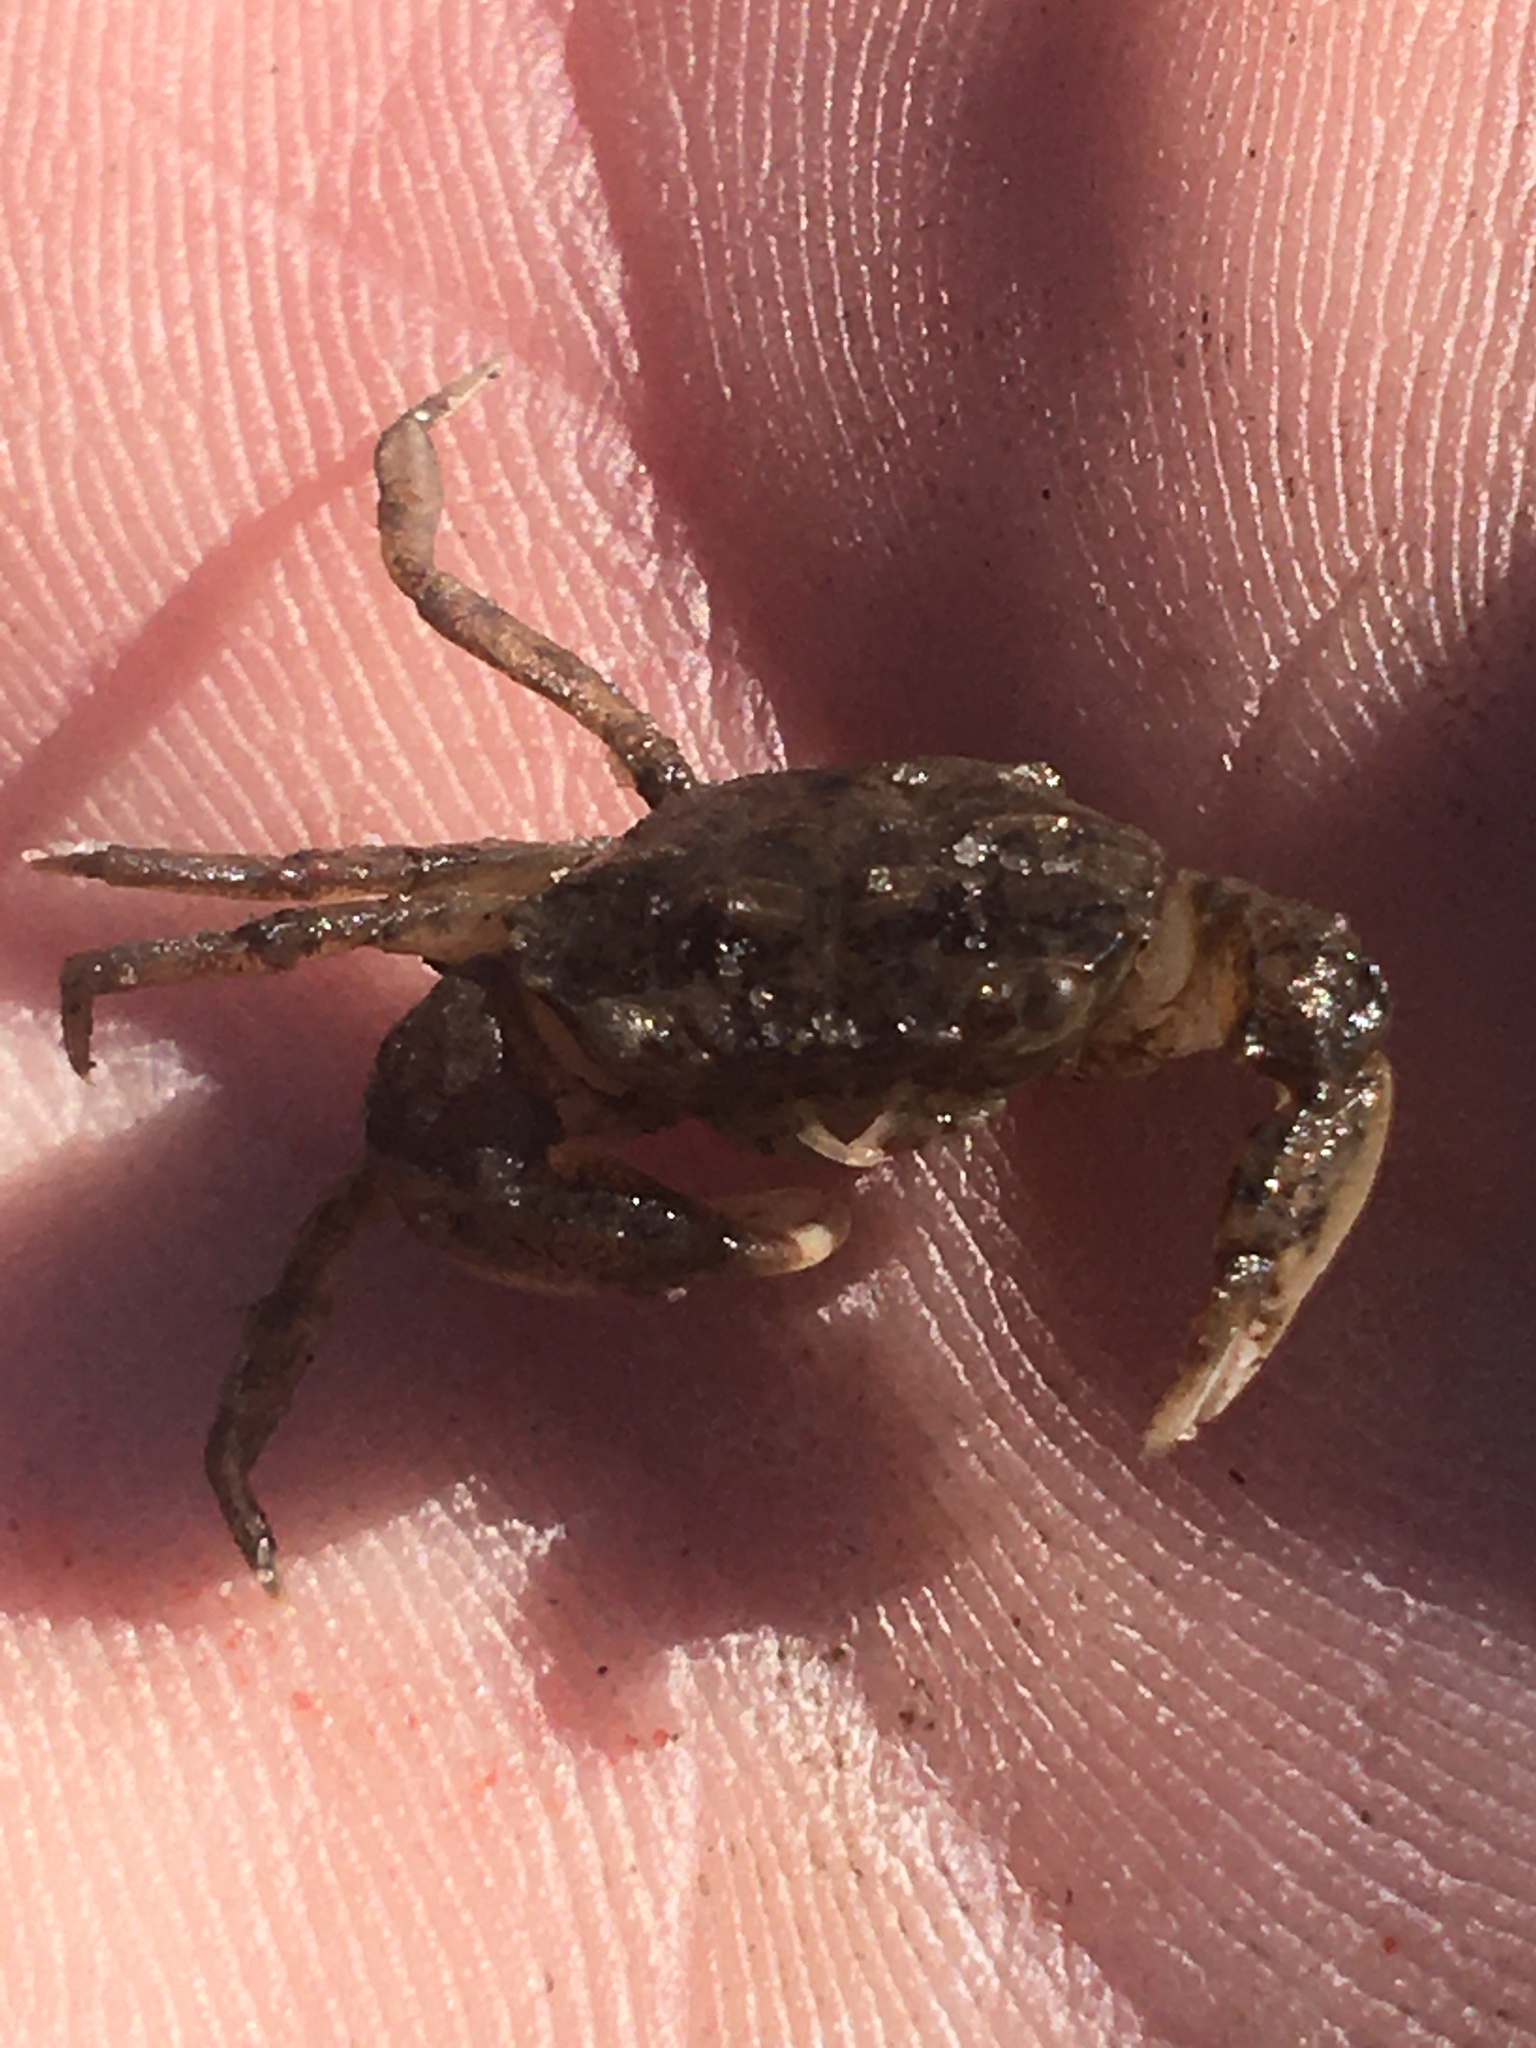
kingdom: Animalia
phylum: Arthropoda
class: Malacostraca
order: Decapoda
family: Panopeidae
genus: Rhithropanopeus
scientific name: Rhithropanopeus harrisii
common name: Dwarf crab
